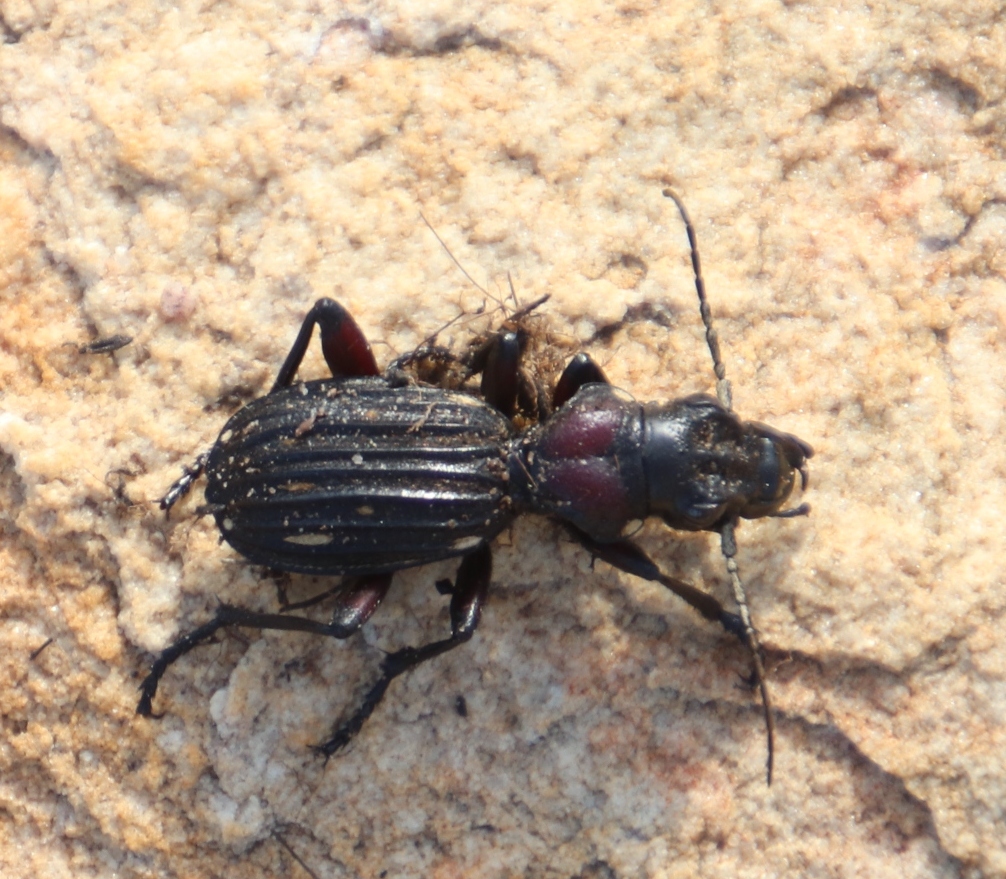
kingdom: Animalia
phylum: Arthropoda
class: Insecta
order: Coleoptera
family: Carabidae
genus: Anthia
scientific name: Anthia decemguttata
